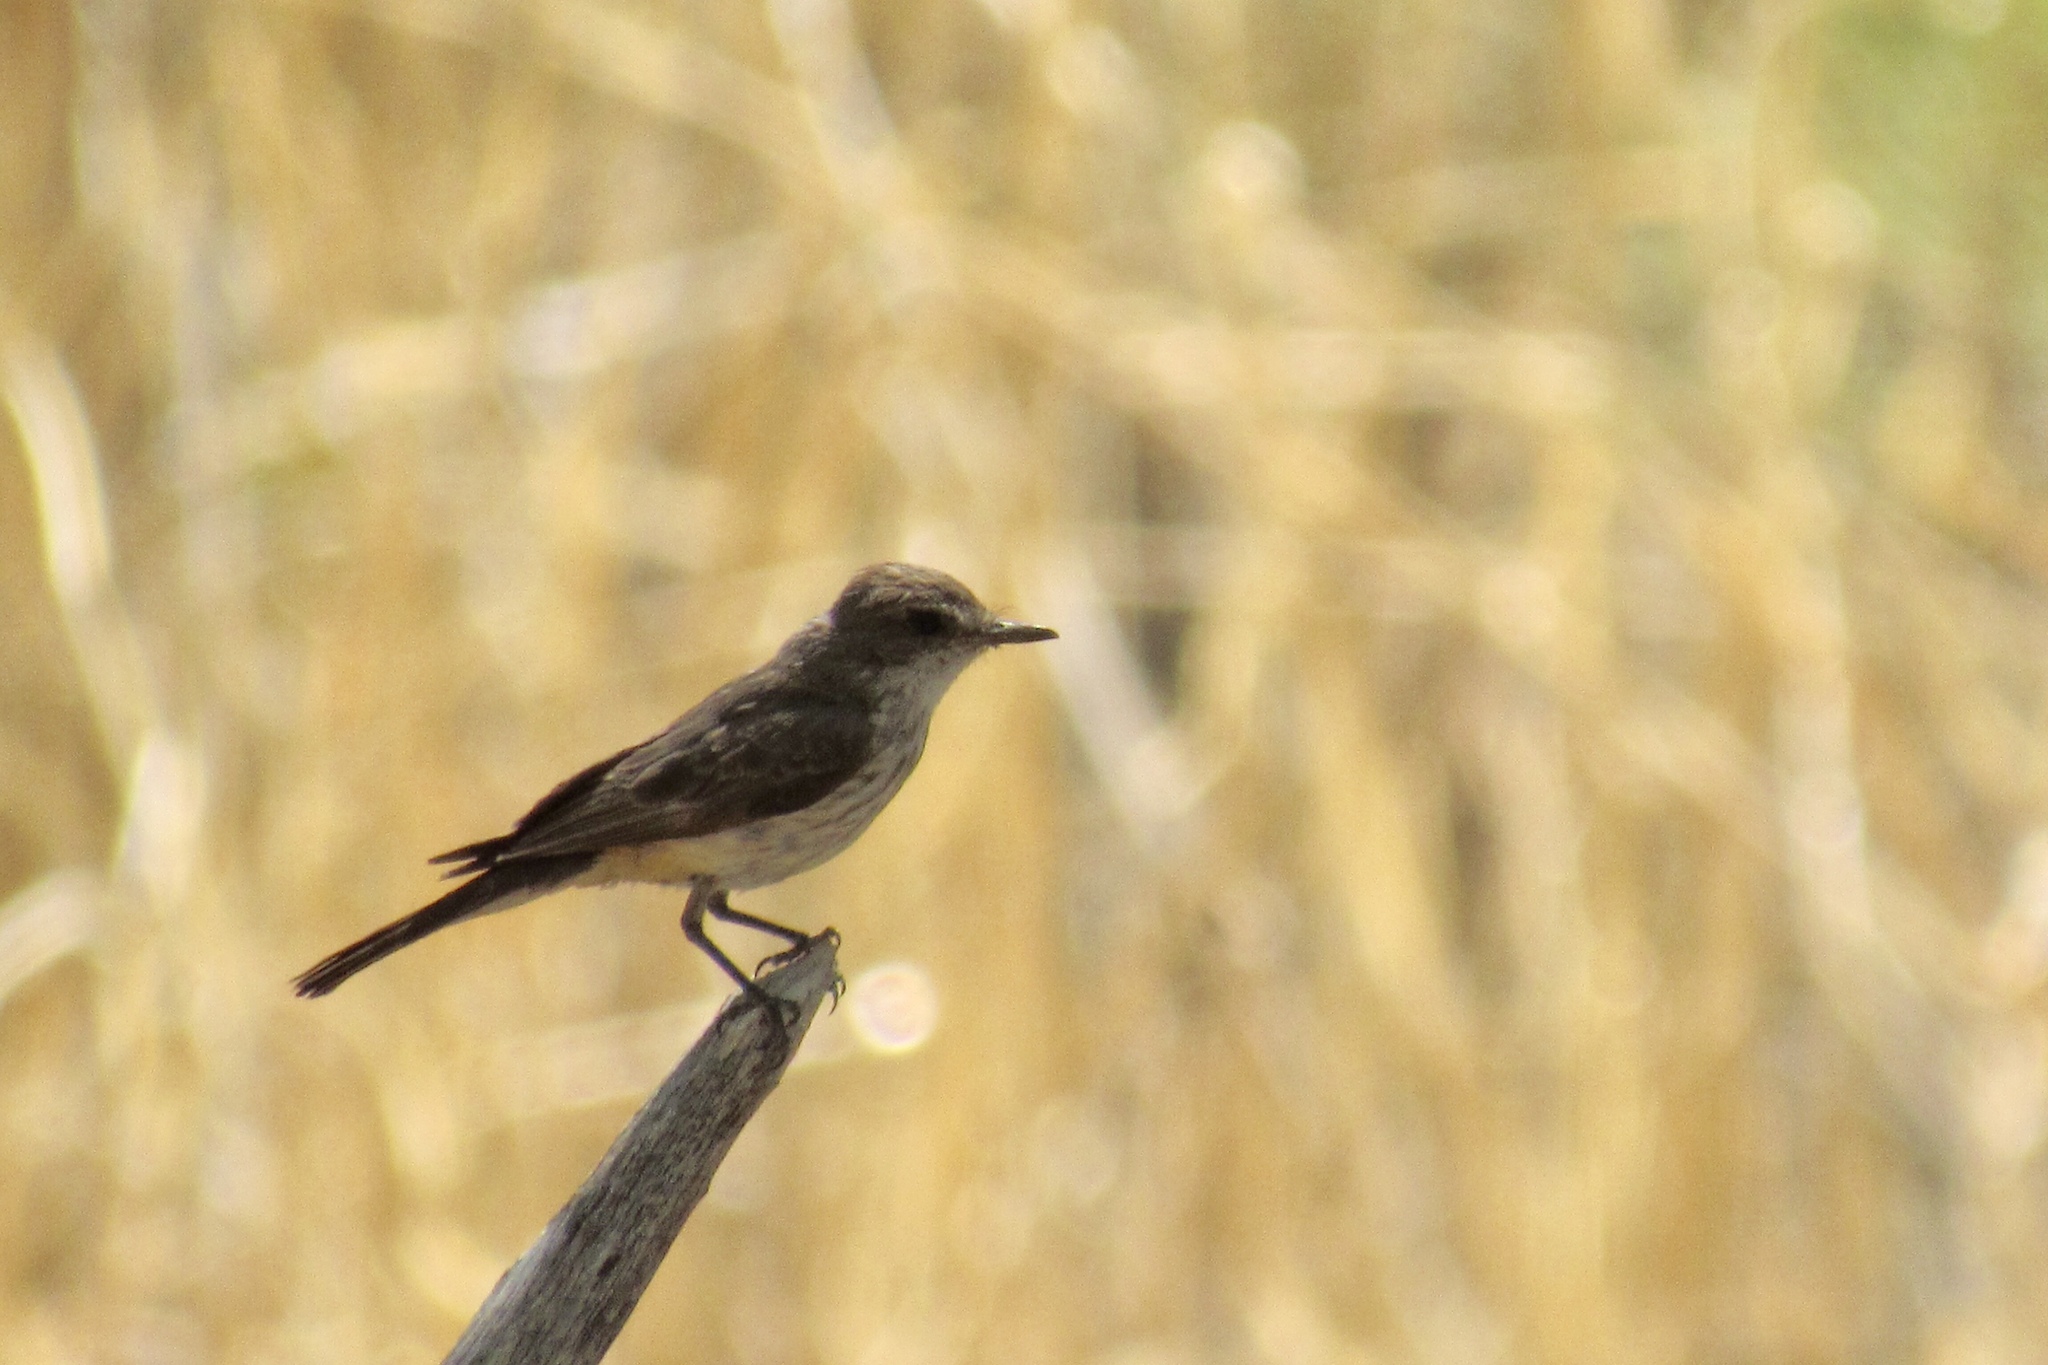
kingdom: Animalia
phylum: Chordata
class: Aves
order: Passeriformes
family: Tyrannidae
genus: Pyrocephalus
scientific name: Pyrocephalus rubinus
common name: Vermilion flycatcher
